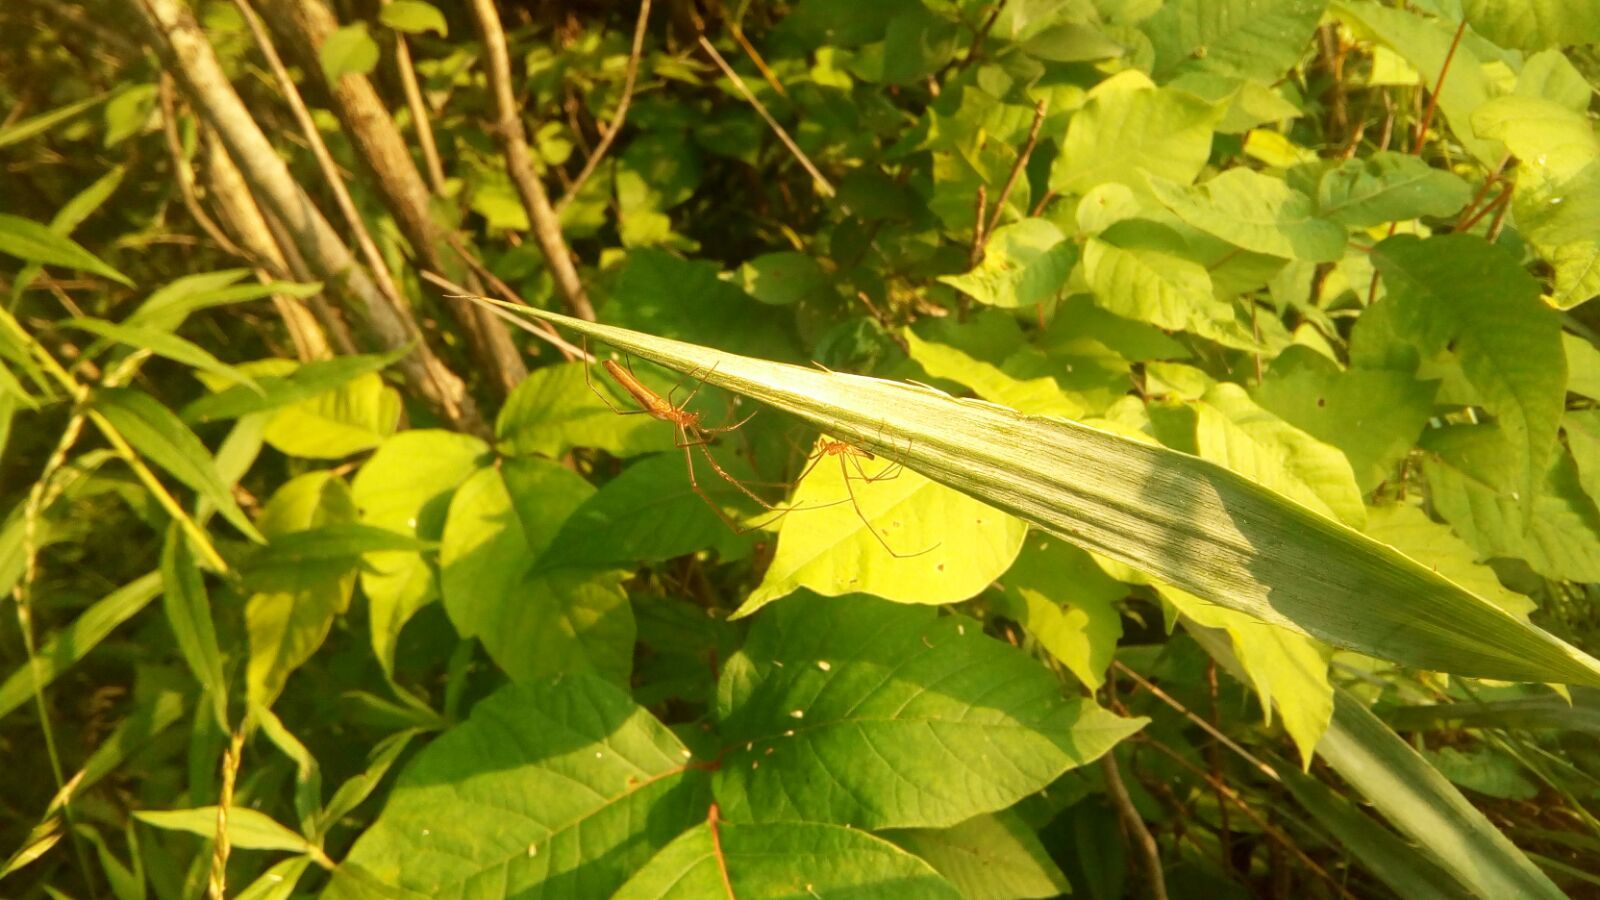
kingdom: Animalia
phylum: Arthropoda
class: Arachnida
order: Araneae
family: Tetragnathidae
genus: Tetragnatha
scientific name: Tetragnatha
